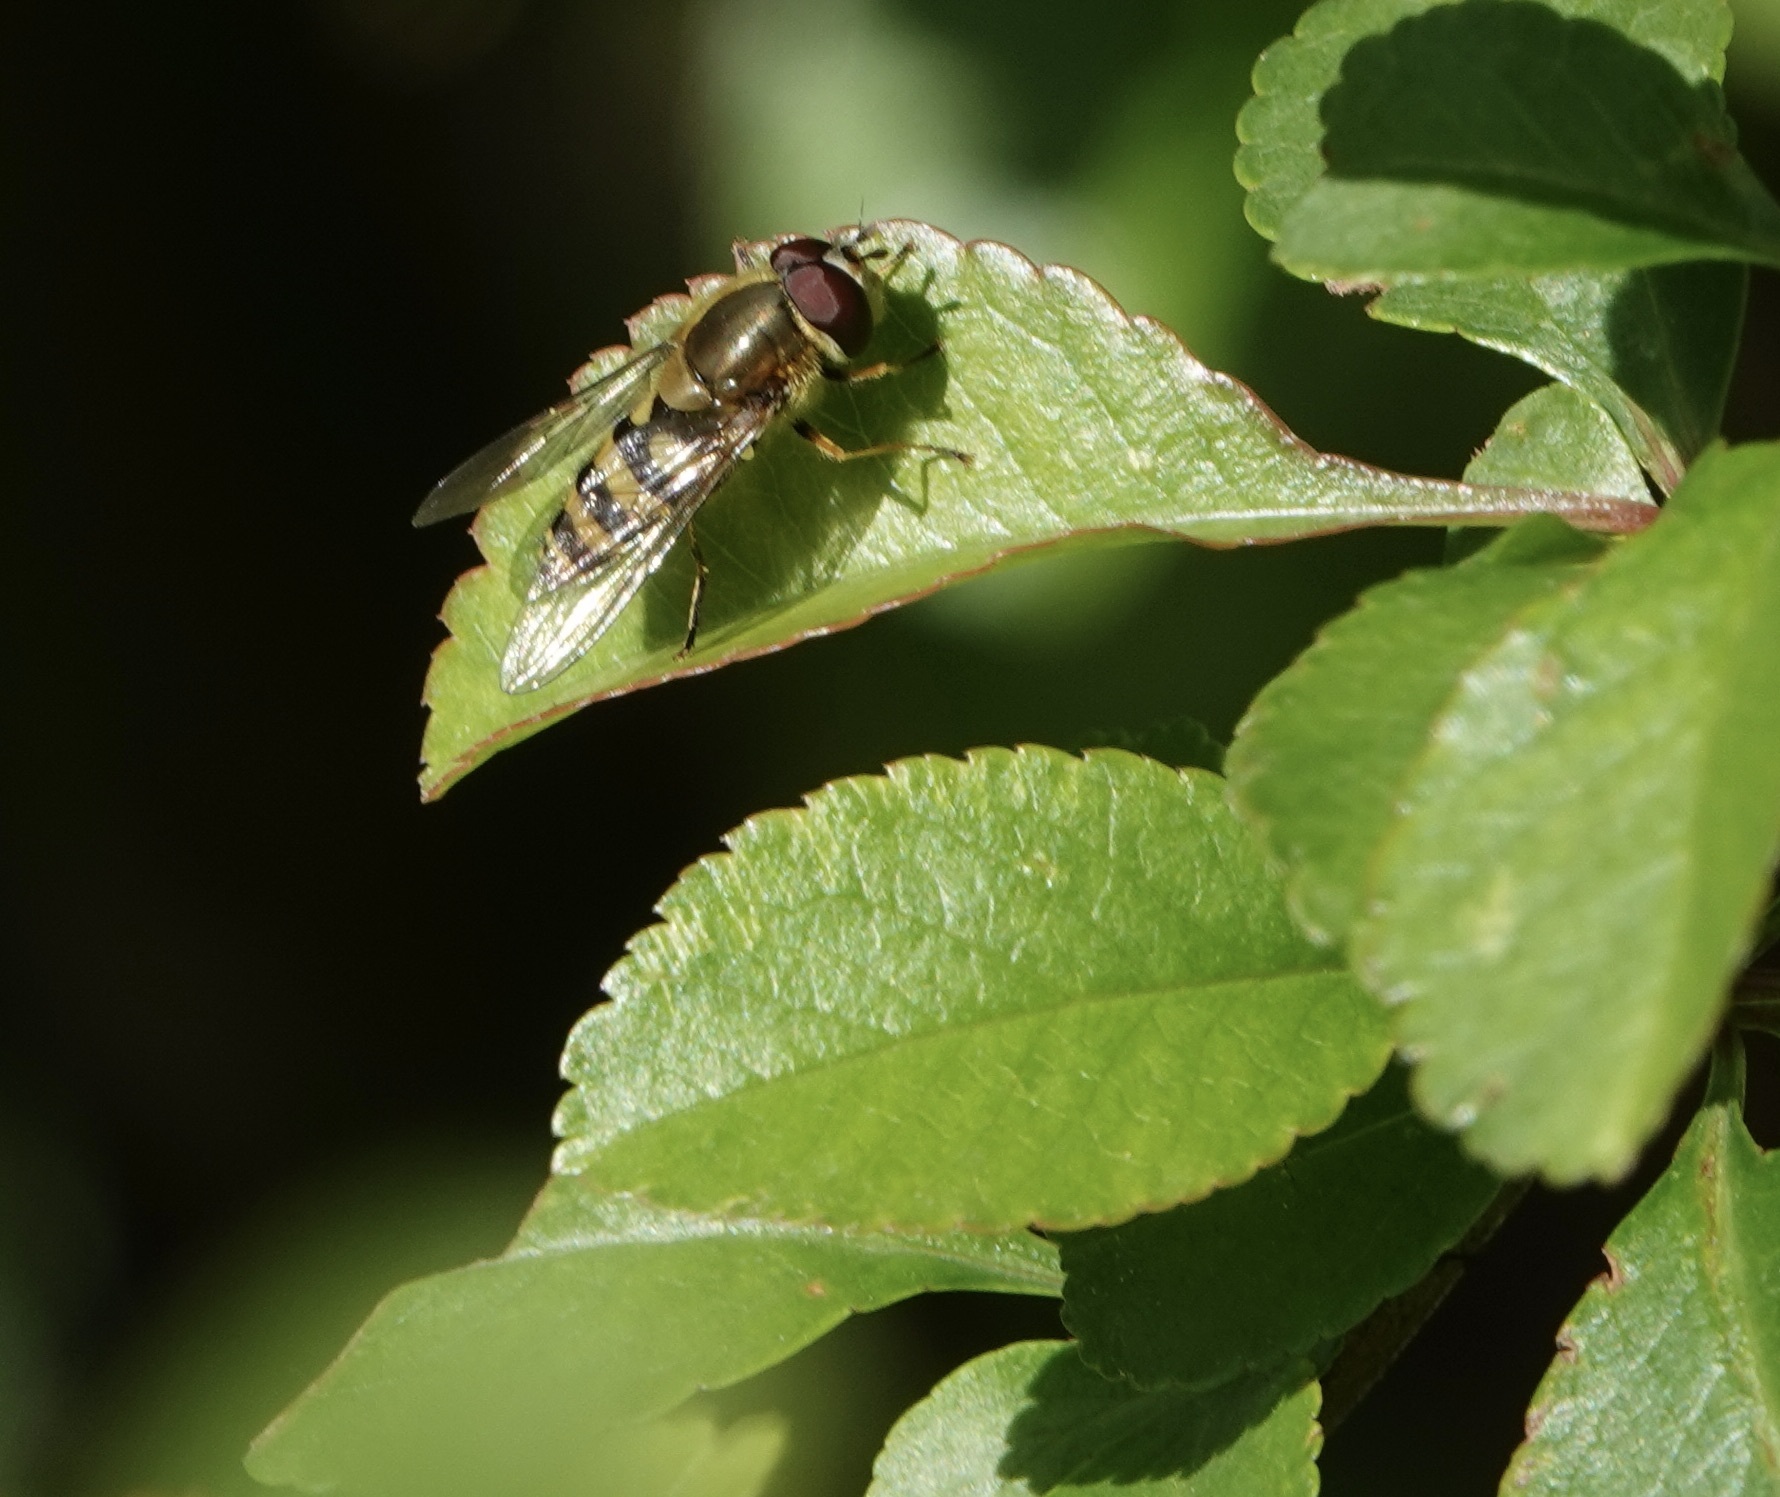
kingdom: Animalia
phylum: Arthropoda
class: Insecta
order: Diptera
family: Syrphidae
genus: Syrphus
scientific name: Syrphus
